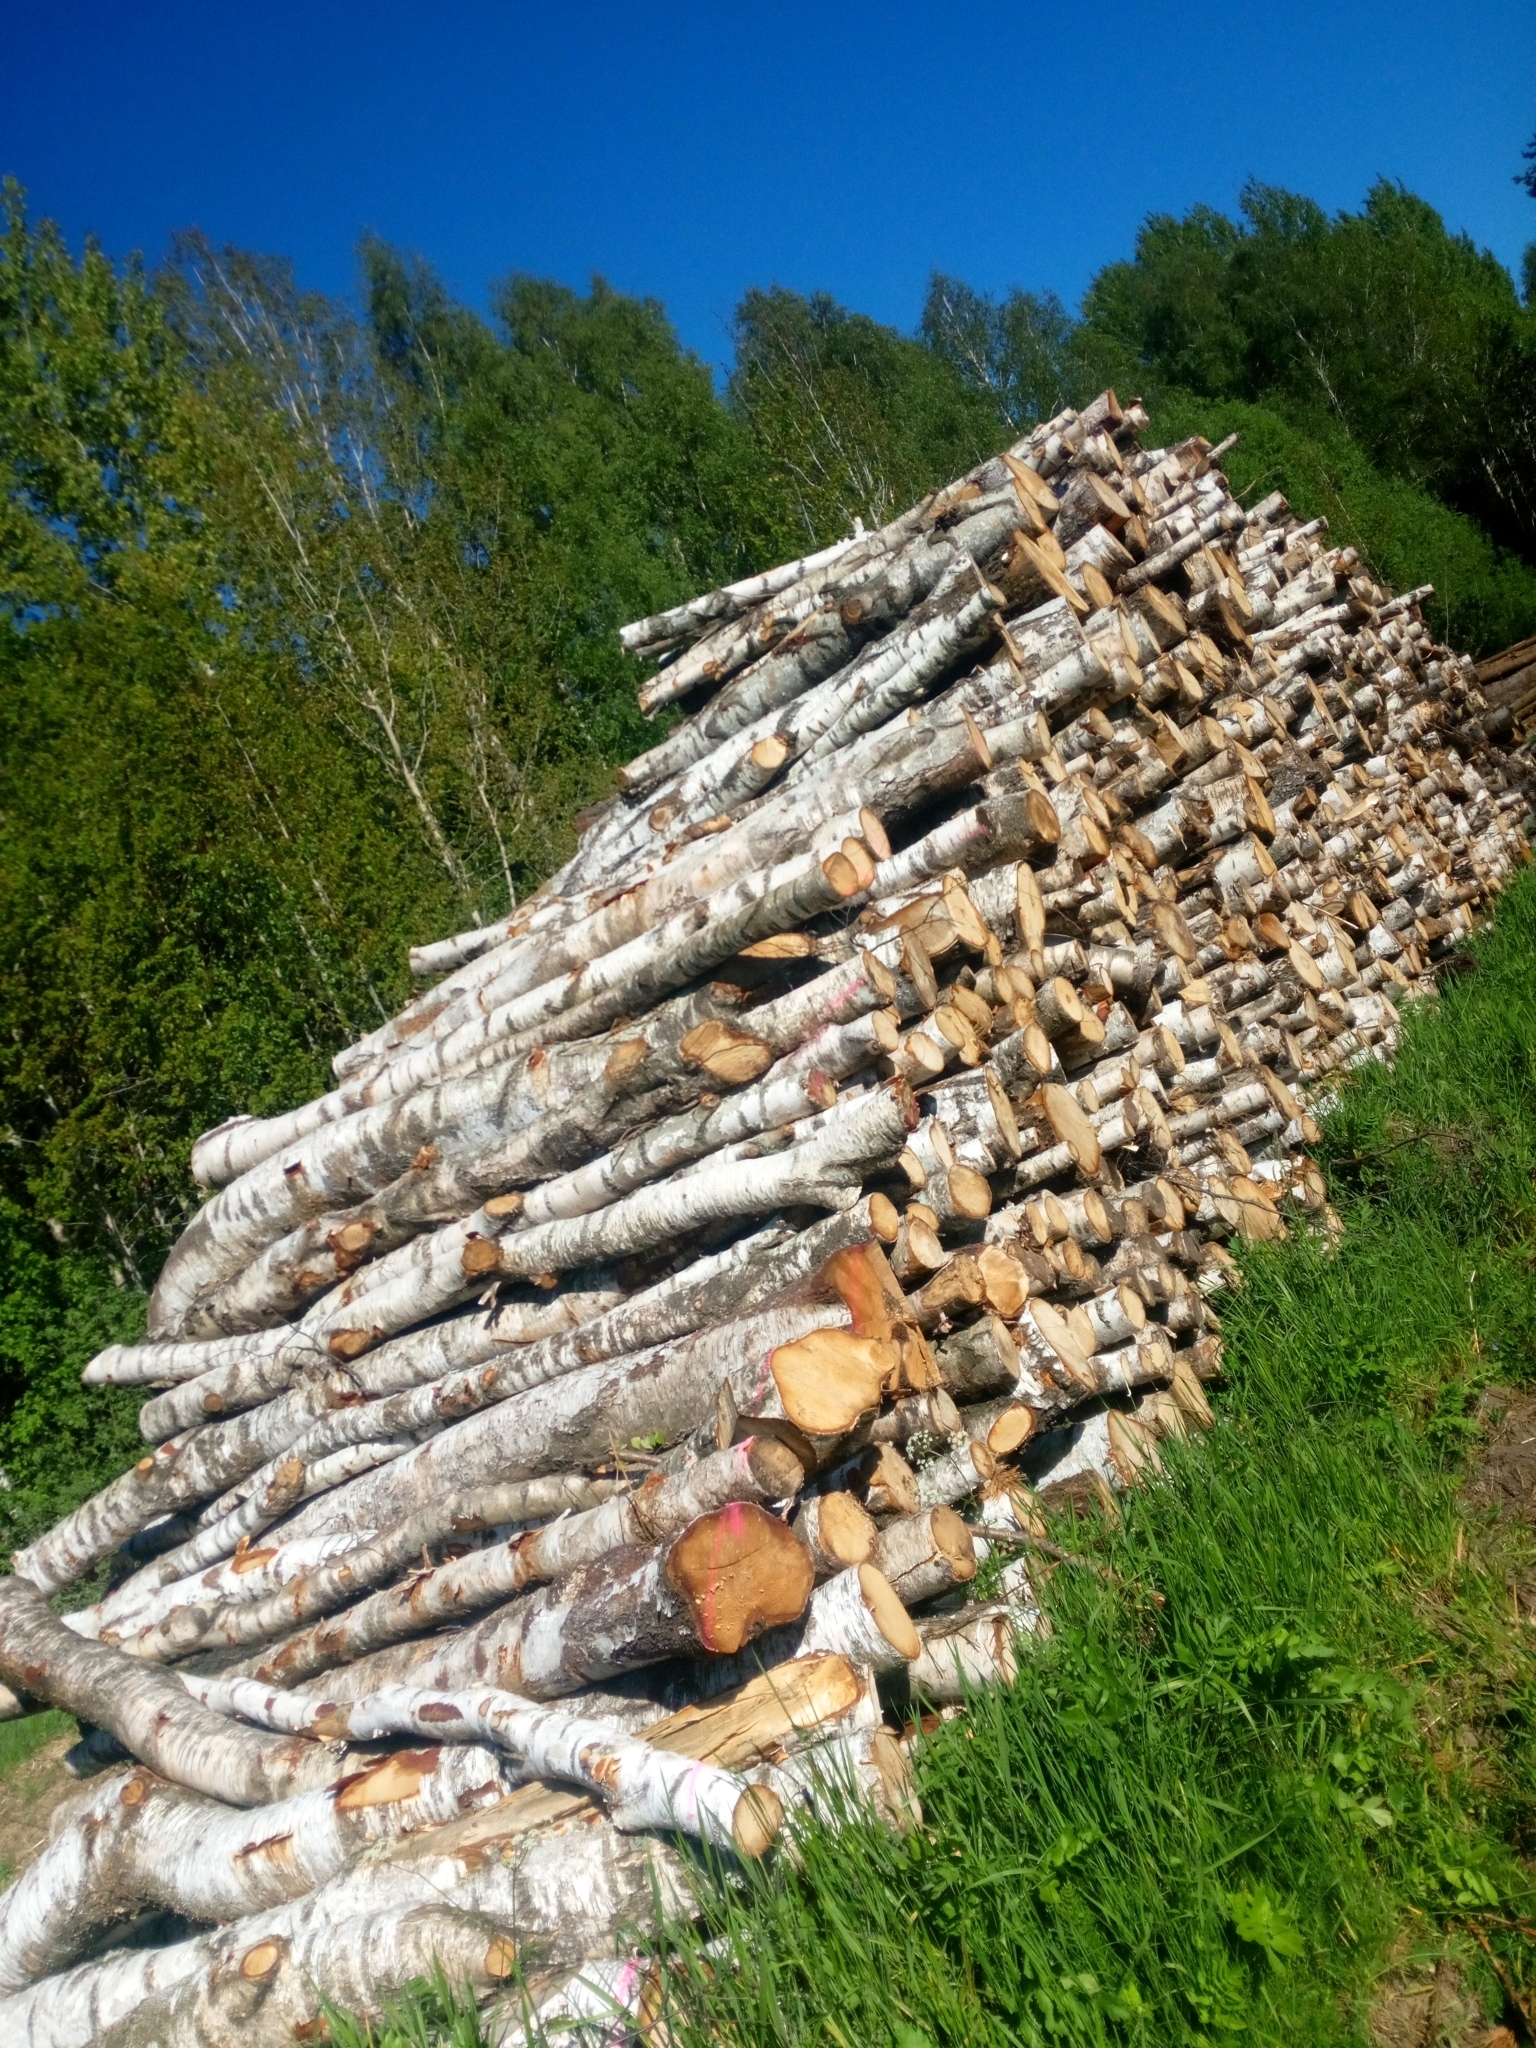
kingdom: Plantae
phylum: Tracheophyta
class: Magnoliopsida
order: Fagales
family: Betulaceae
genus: Betula
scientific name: Betula pendula
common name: Silver birch
